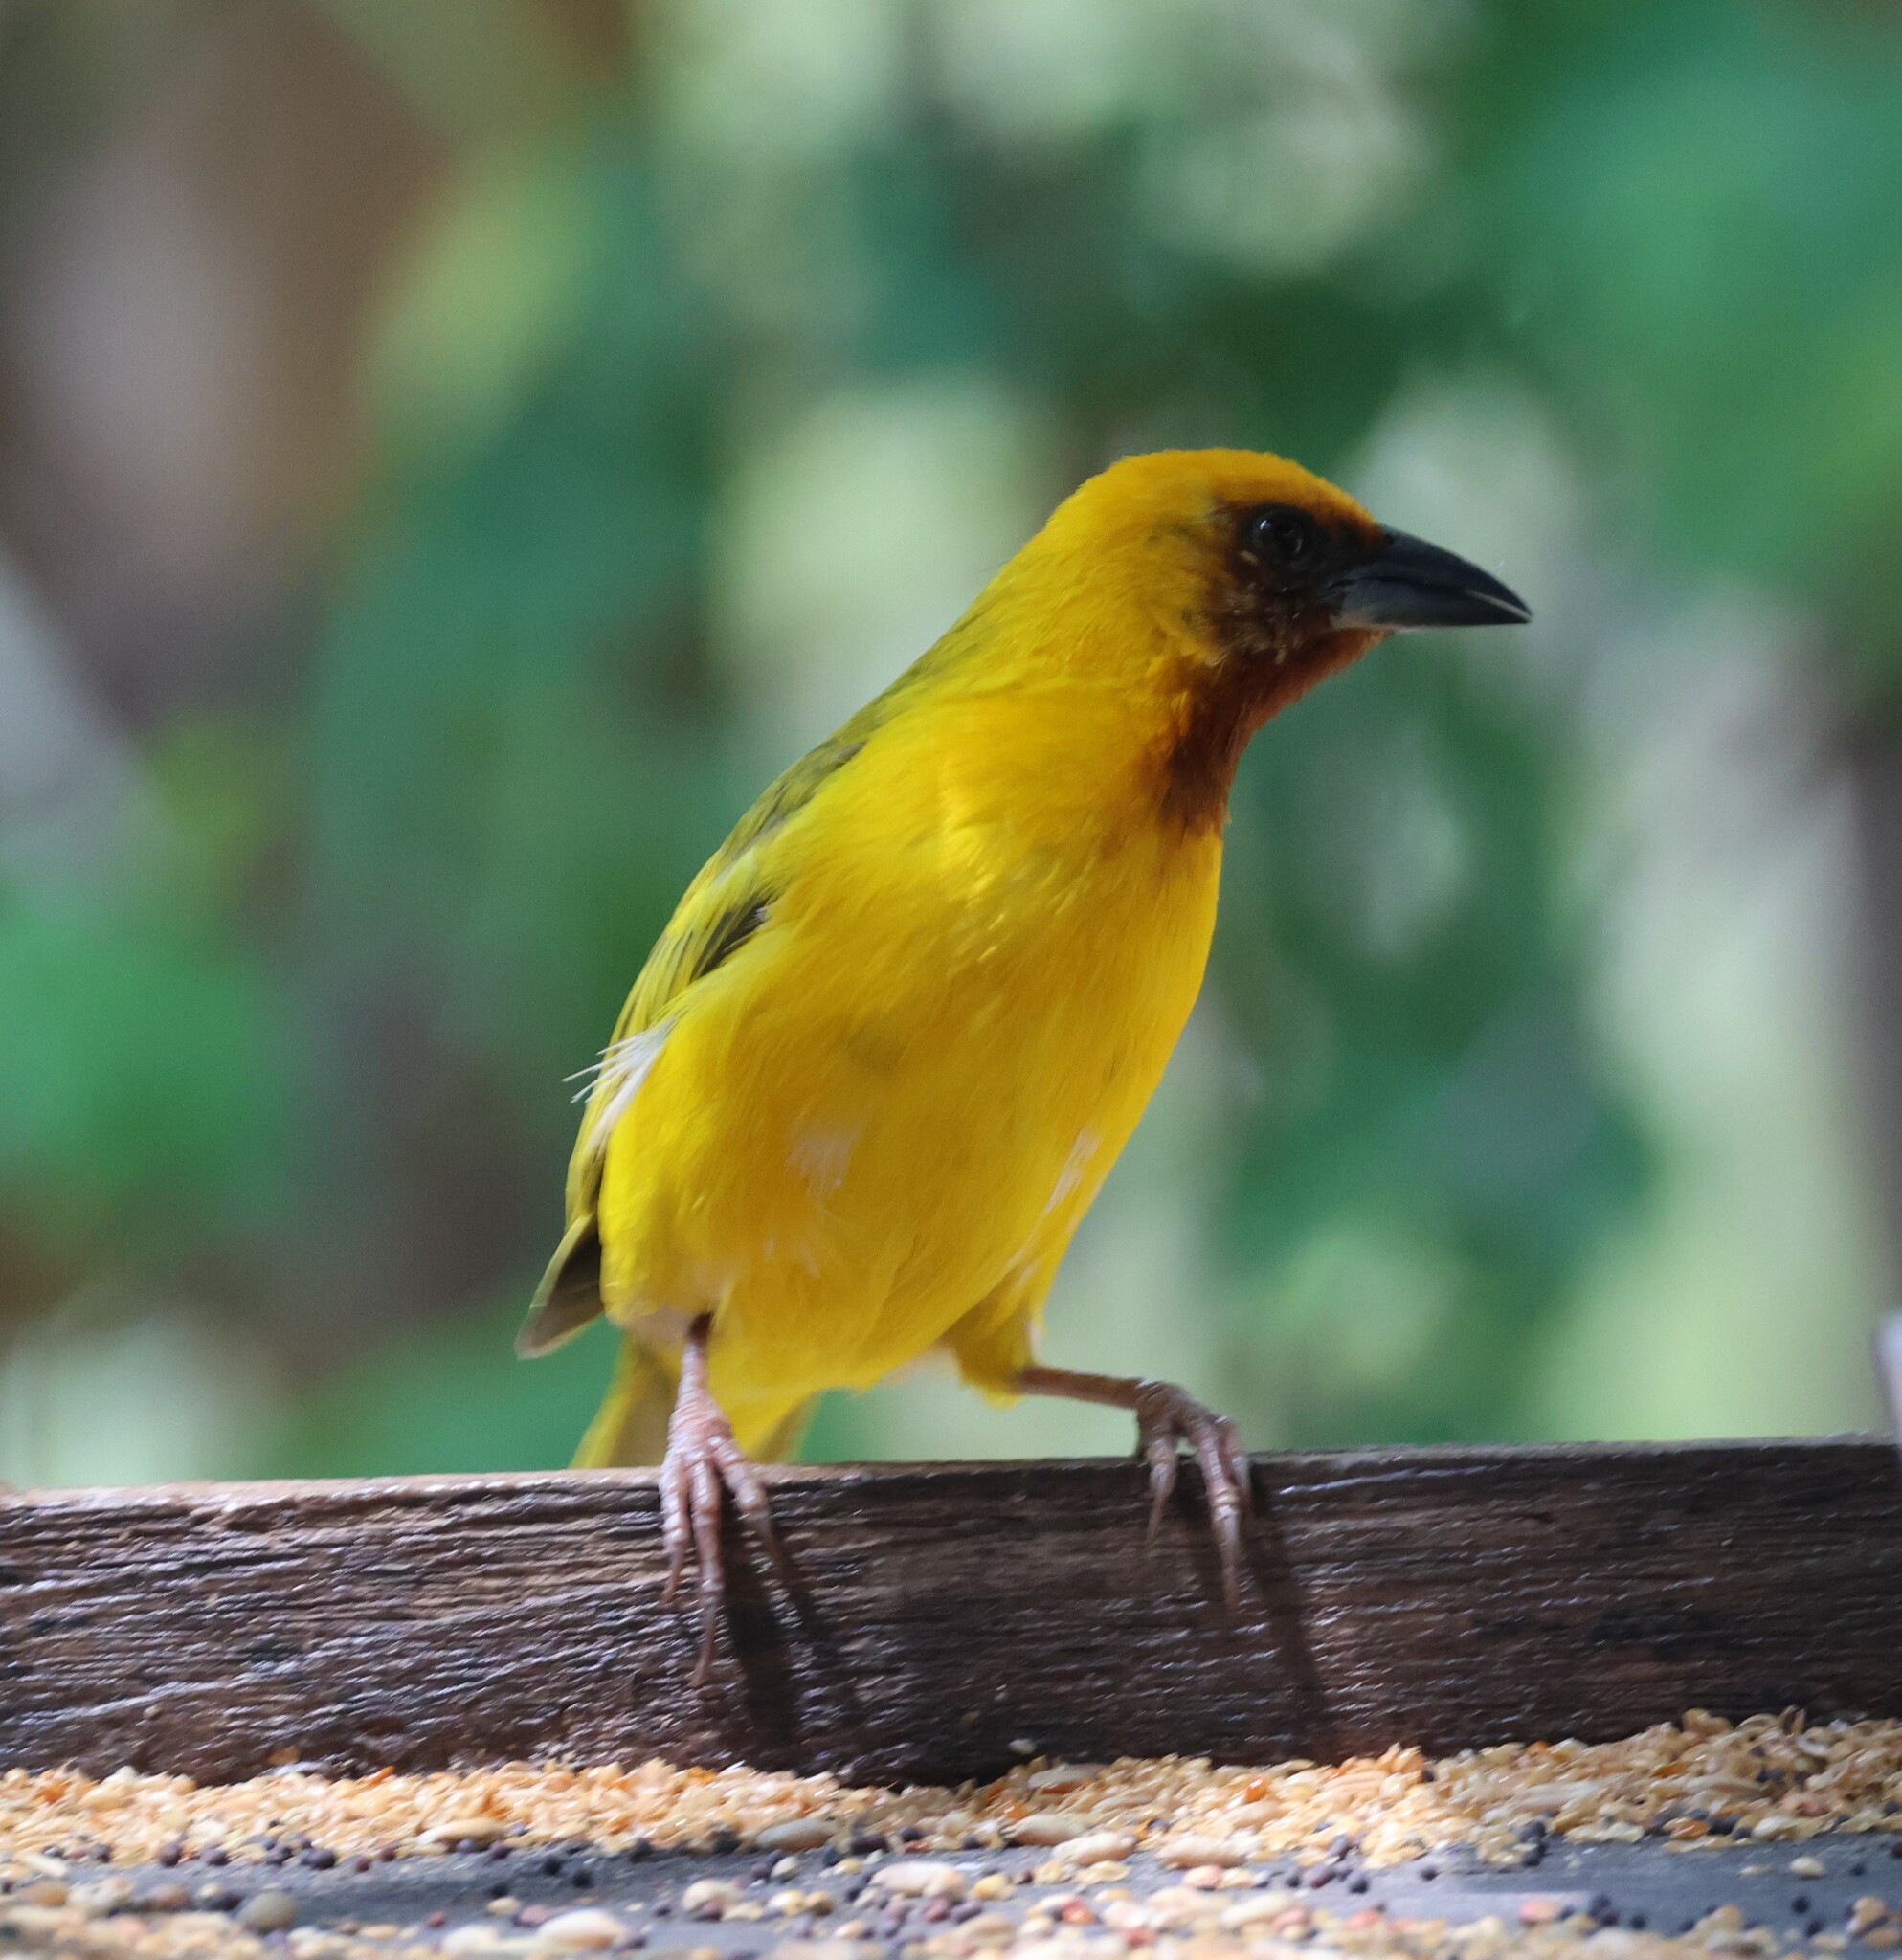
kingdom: Animalia
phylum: Chordata
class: Aves
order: Passeriformes
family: Ploceidae
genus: Ploceus
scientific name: Ploceus xanthopterus
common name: Southern brown-throated weaver
